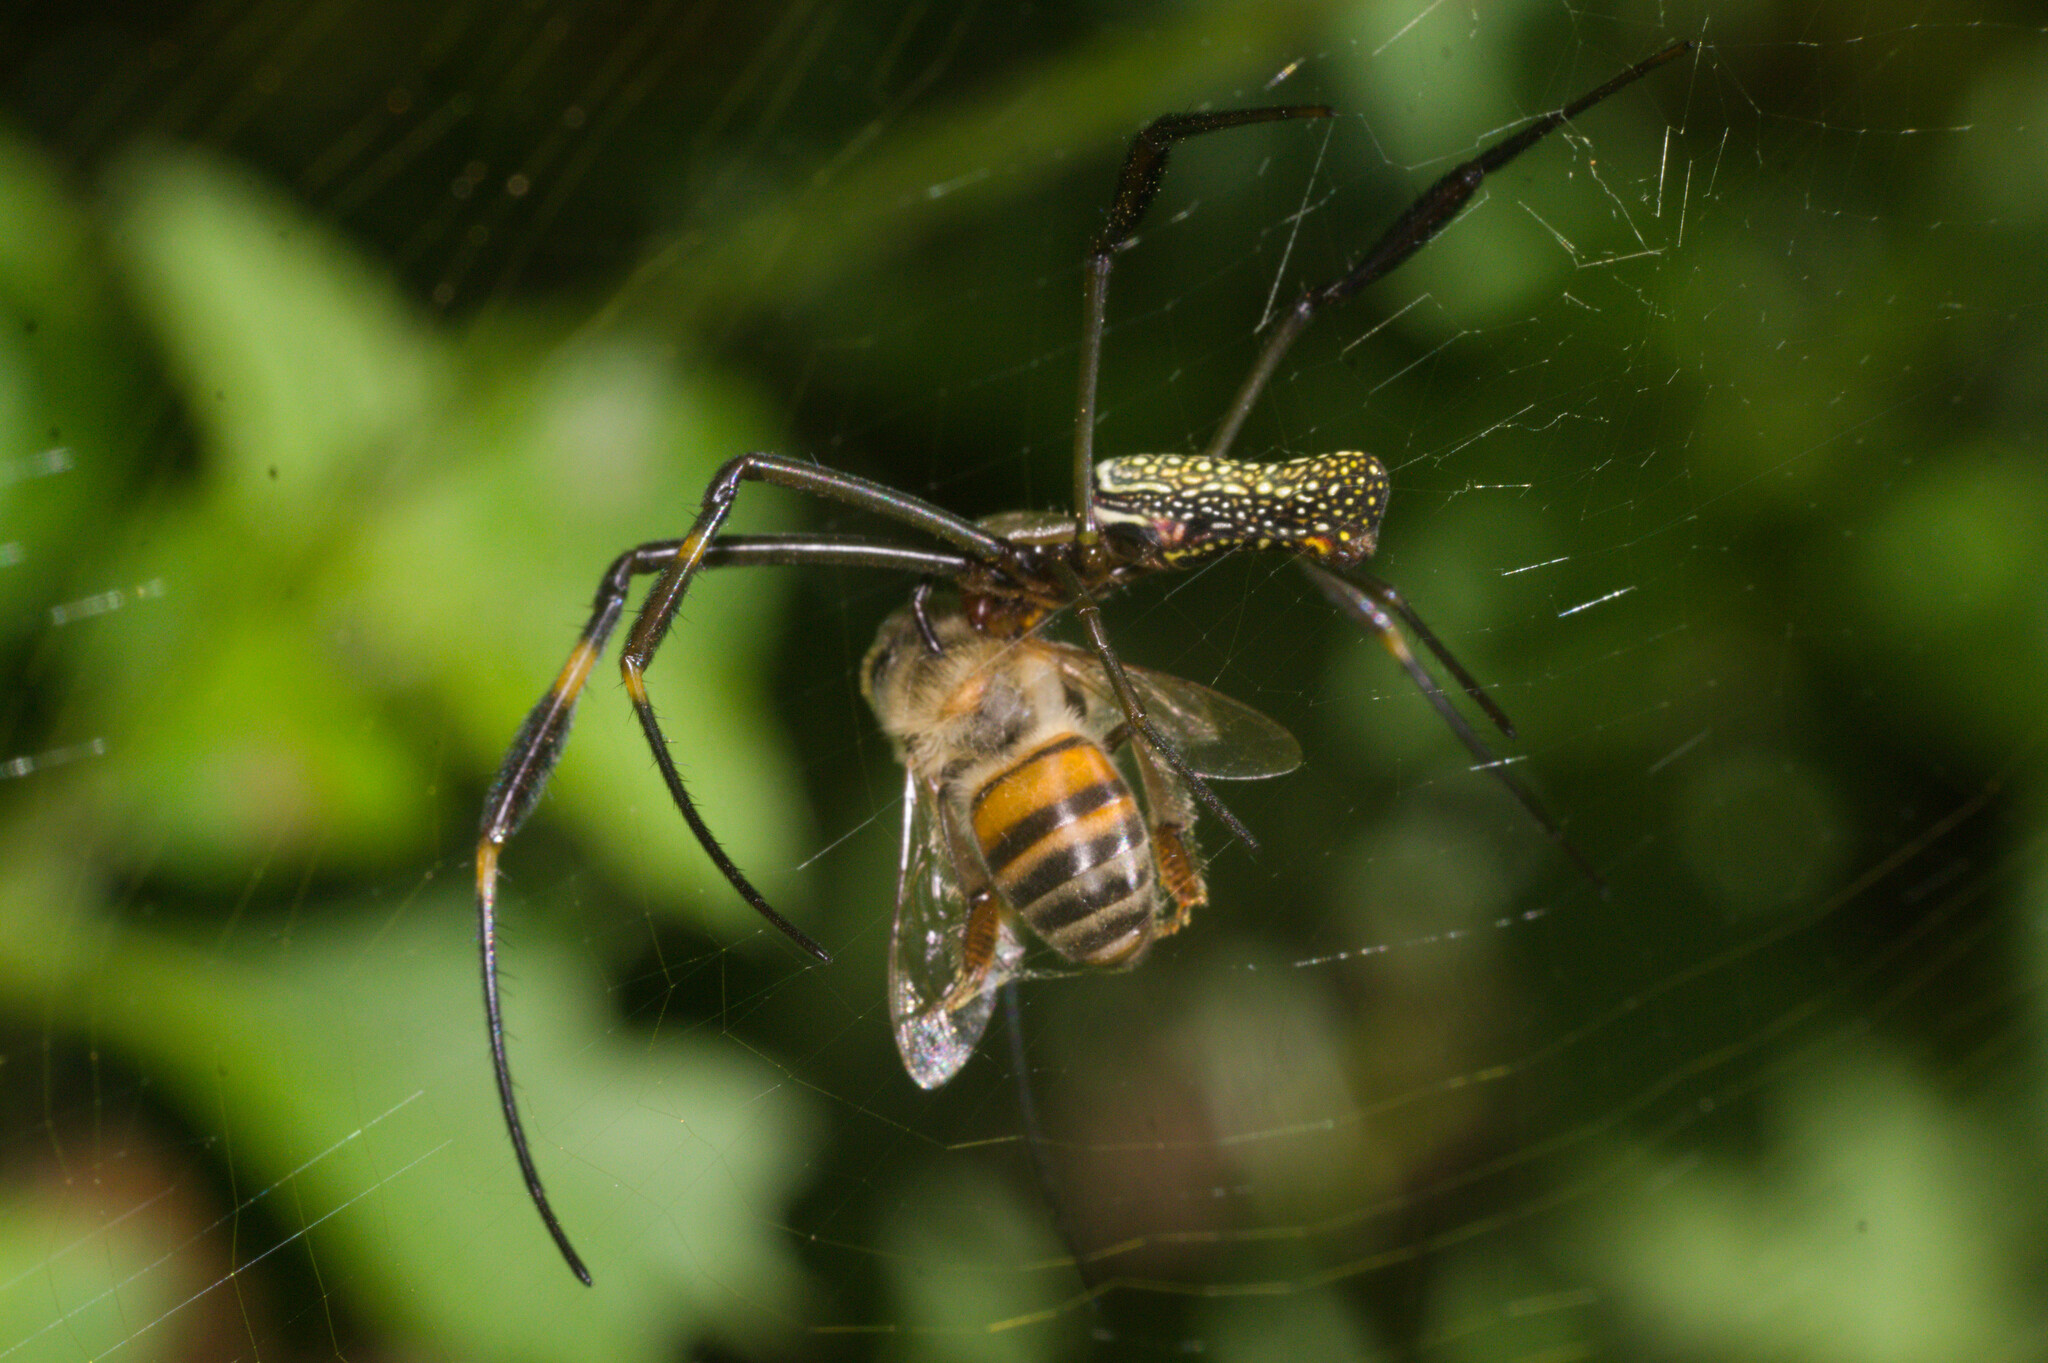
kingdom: Animalia
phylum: Arthropoda
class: Arachnida
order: Araneae
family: Araneidae
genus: Trichonephila
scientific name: Trichonephila clavipes
